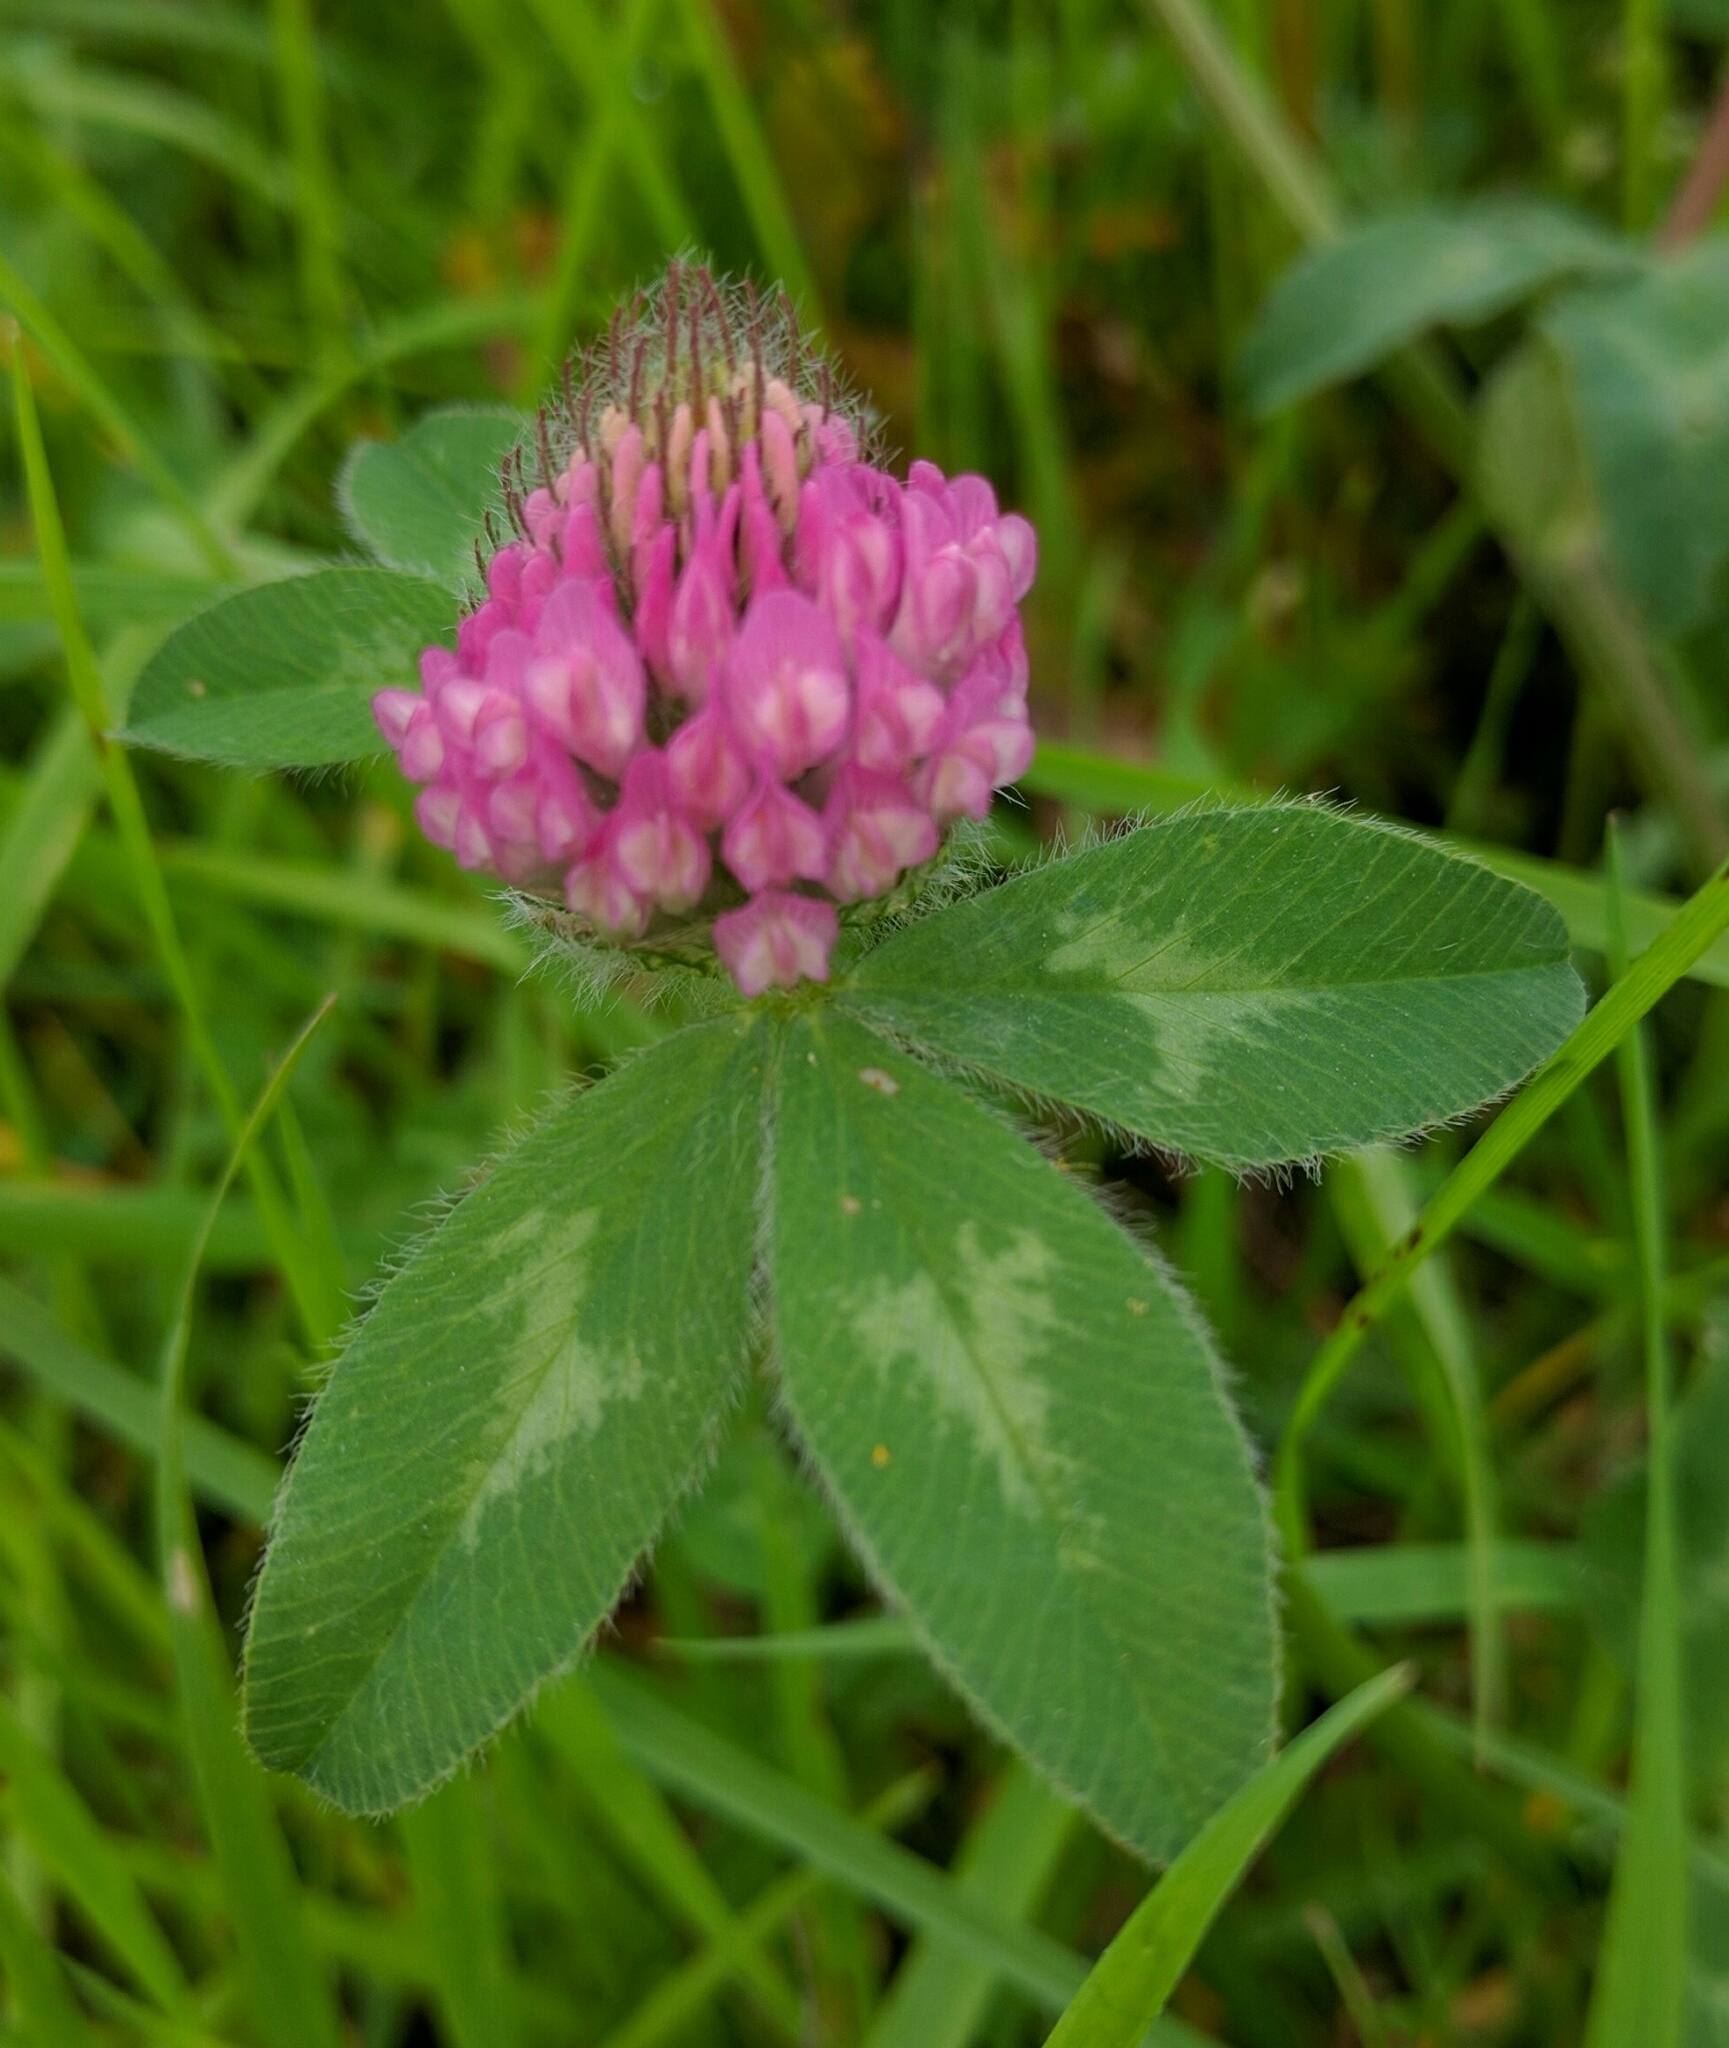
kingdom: Plantae
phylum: Tracheophyta
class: Magnoliopsida
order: Fabales
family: Fabaceae
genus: Trifolium
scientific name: Trifolium pratense
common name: Red clover
